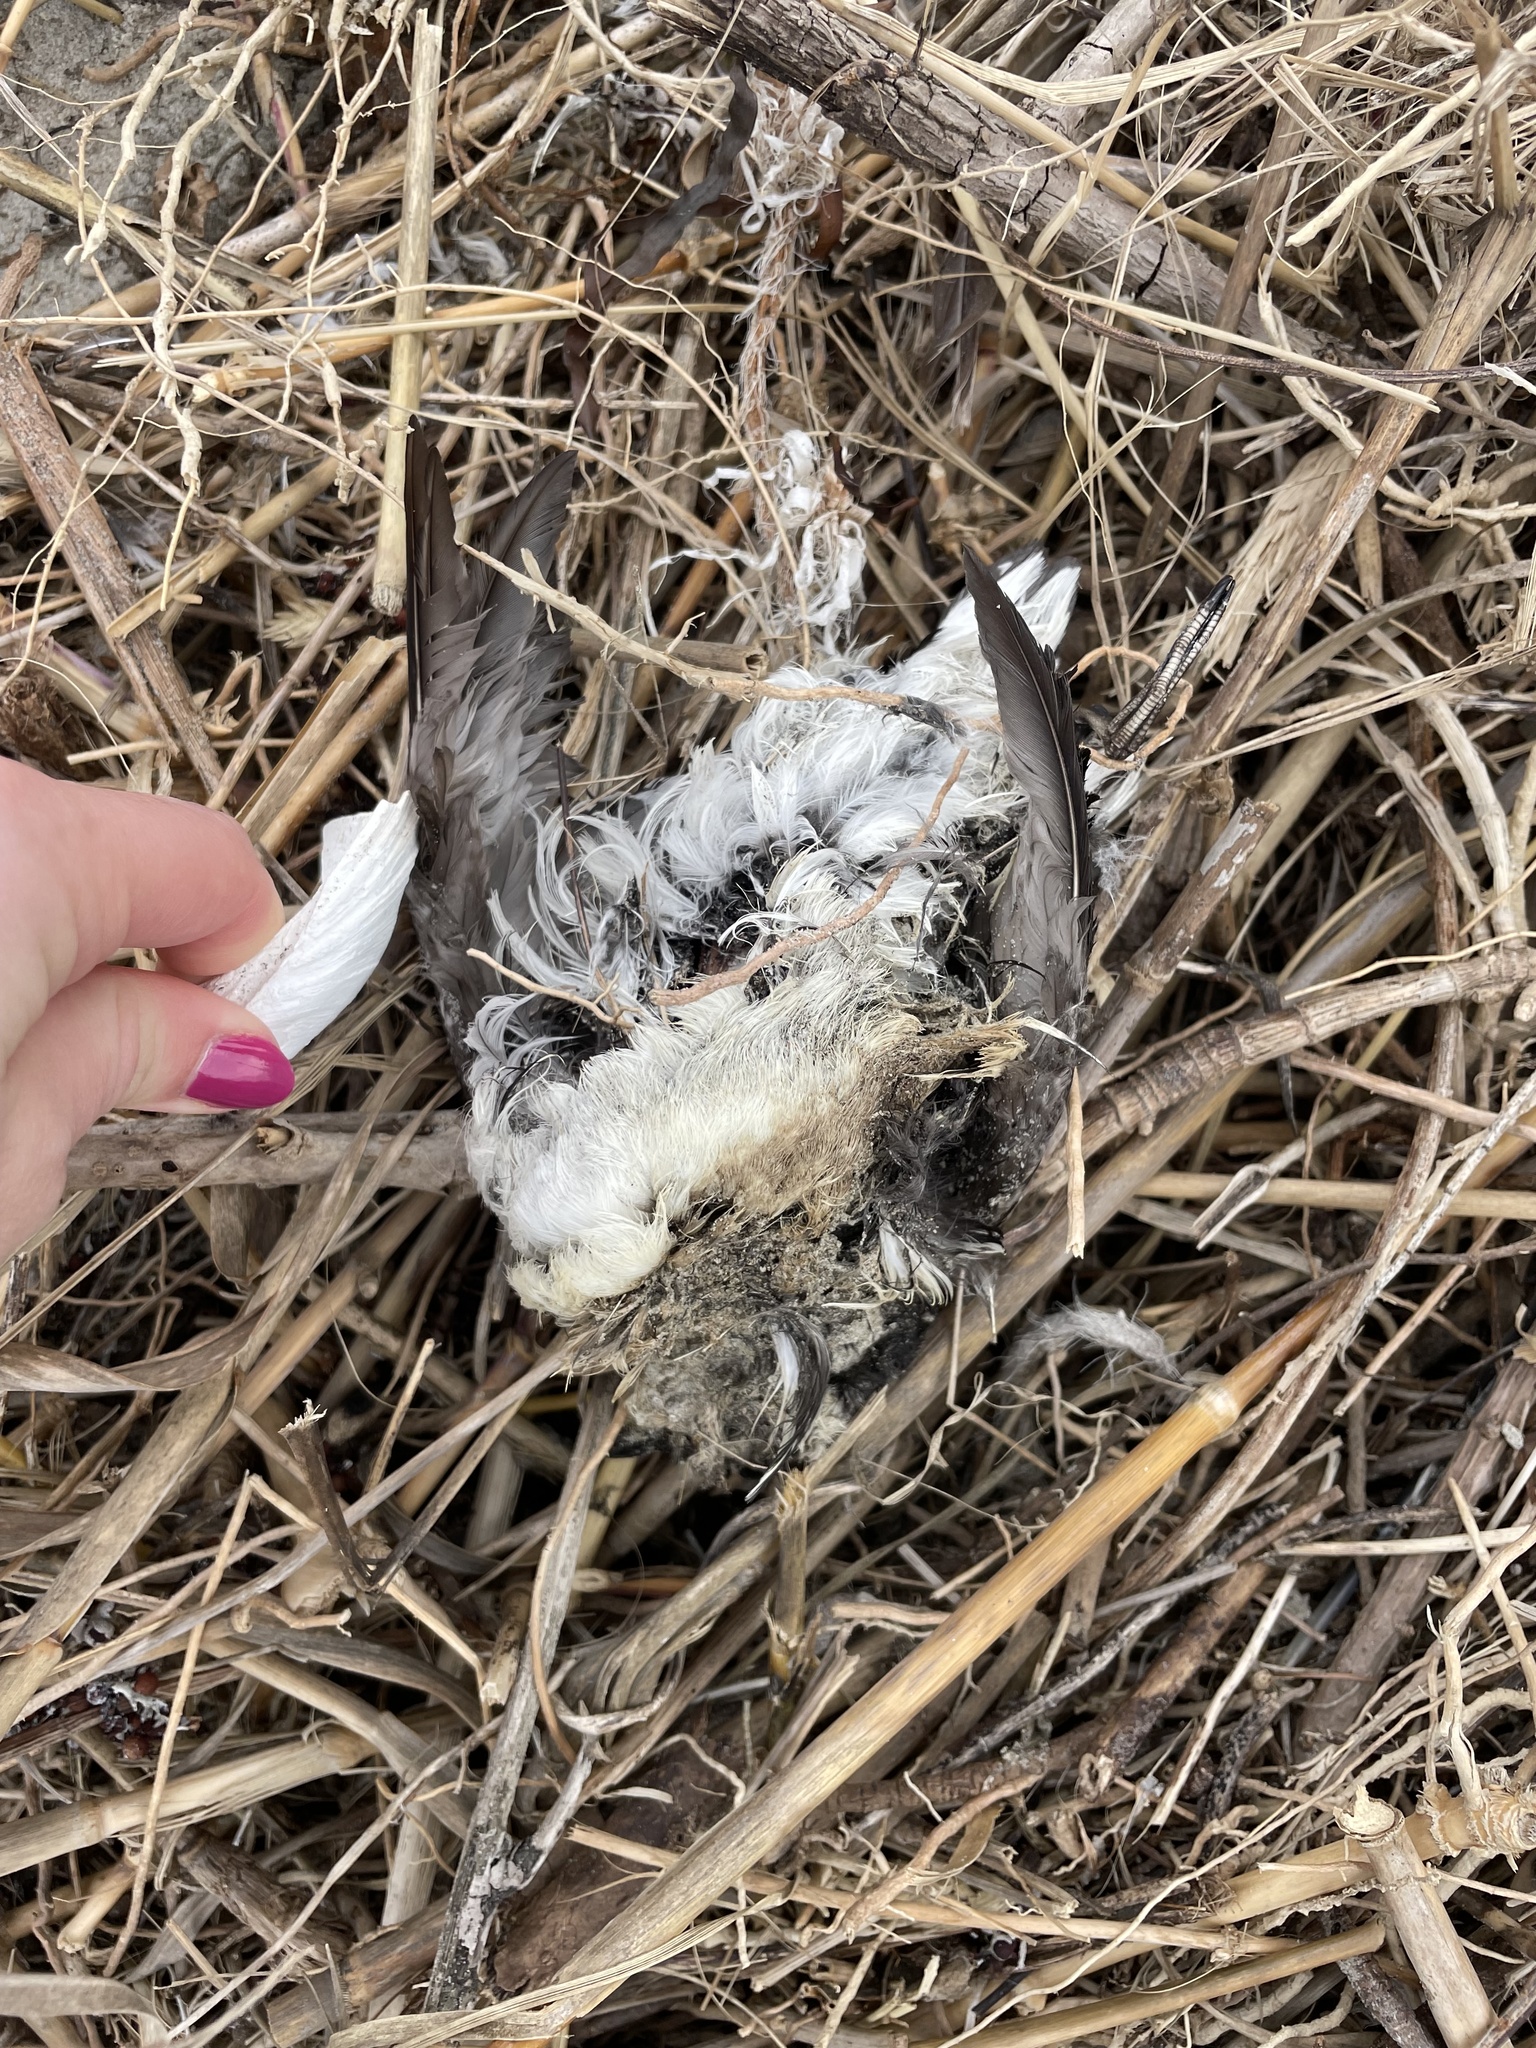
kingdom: Animalia
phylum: Chordata
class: Aves
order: Charadriiformes
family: Alcidae
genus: Alle
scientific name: Alle alle
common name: Little auk
